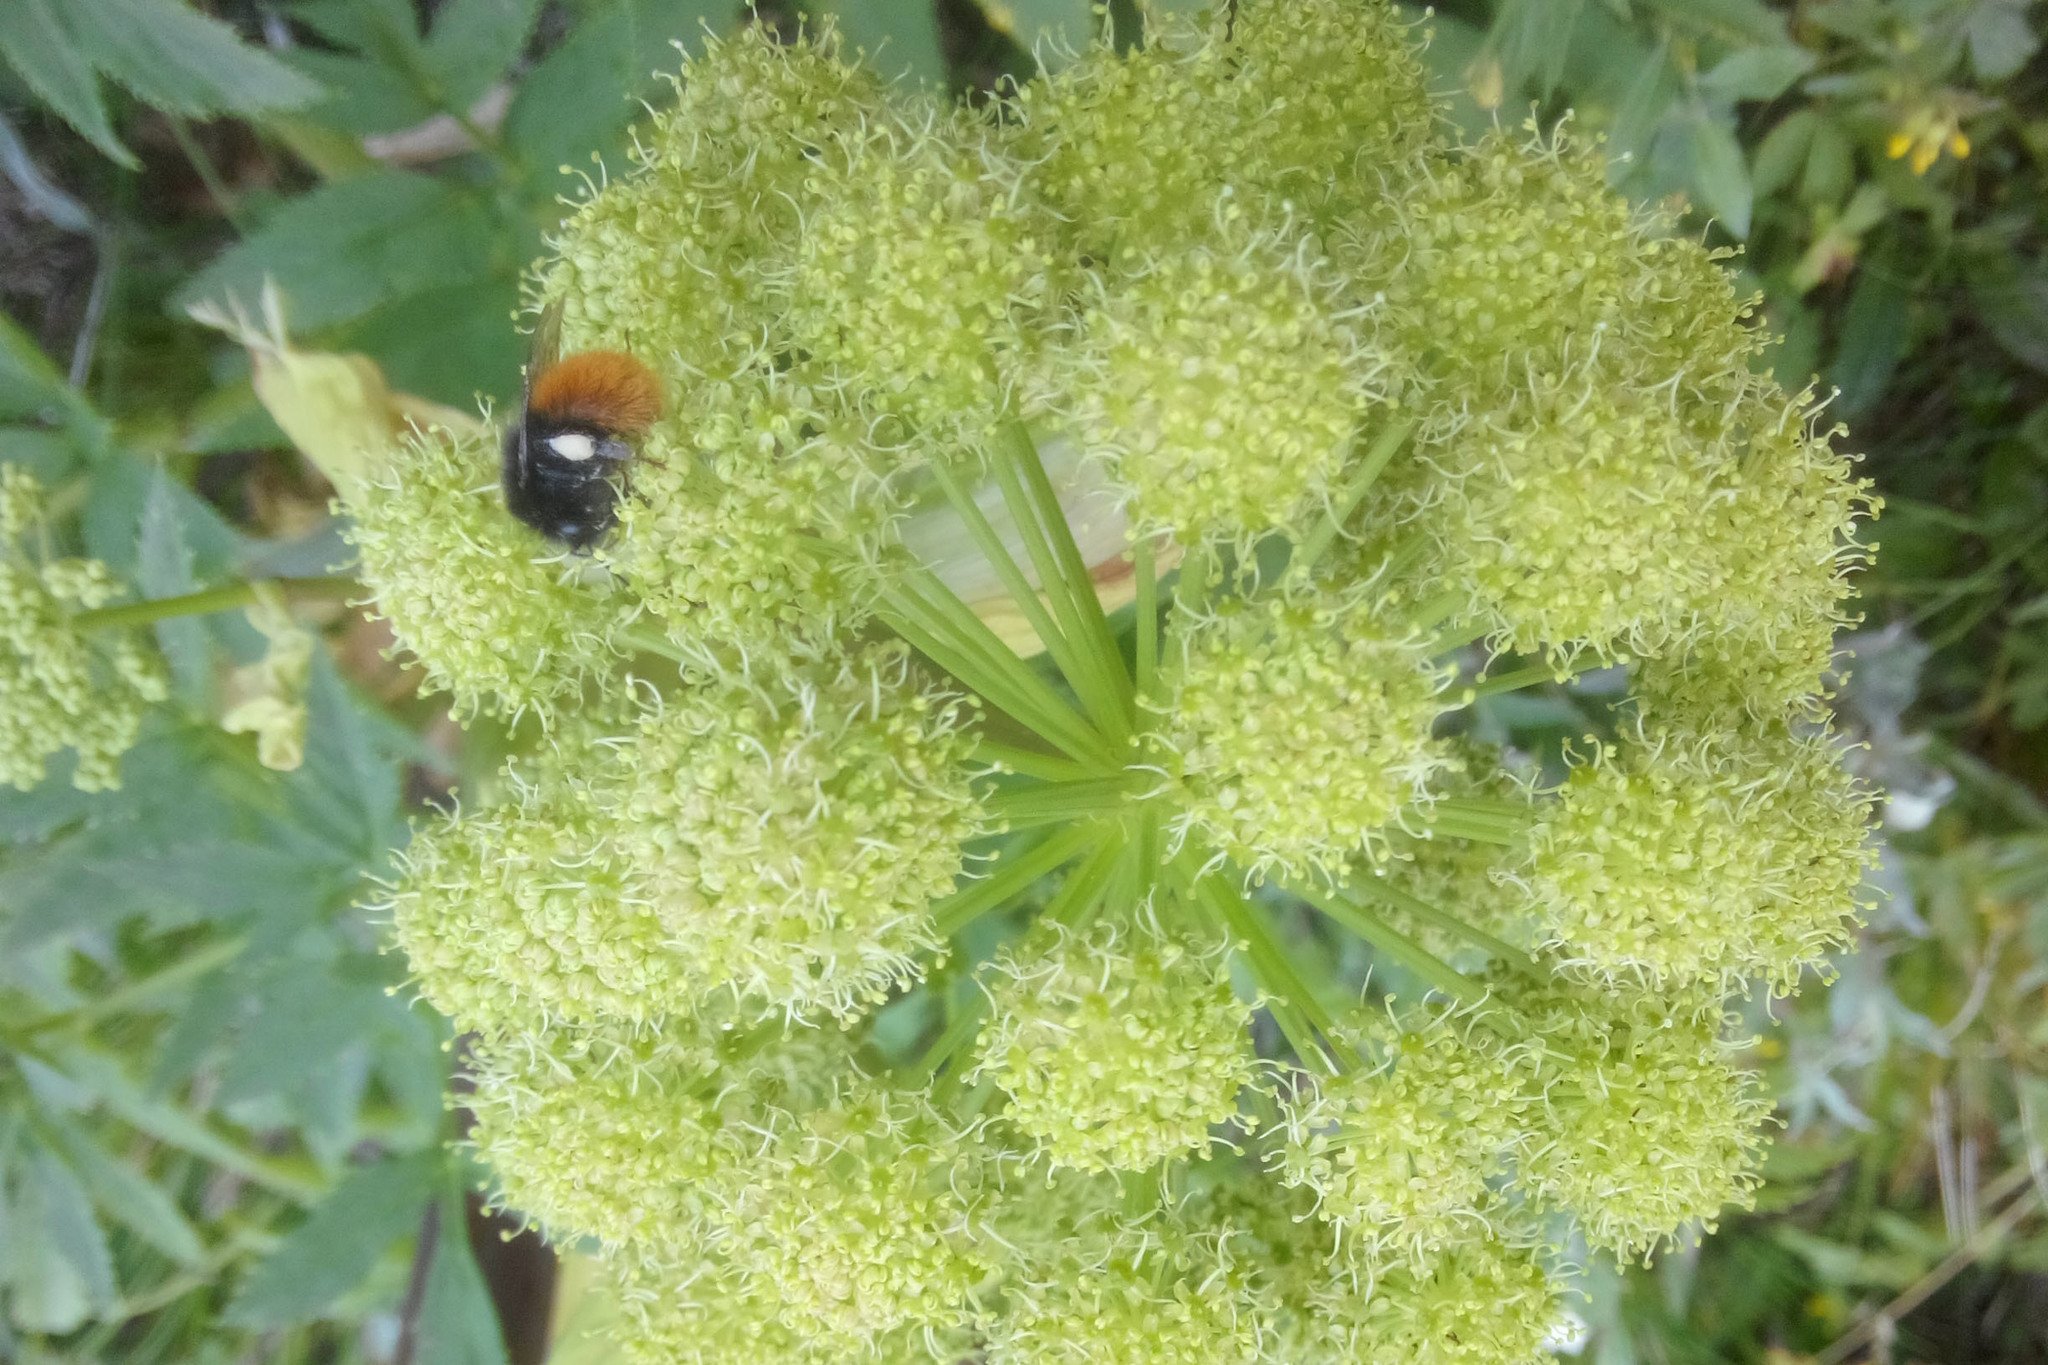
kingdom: Animalia
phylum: Arthropoda
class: Insecta
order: Hymenoptera
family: Apidae
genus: Bombus
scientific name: Bombus alpinus
